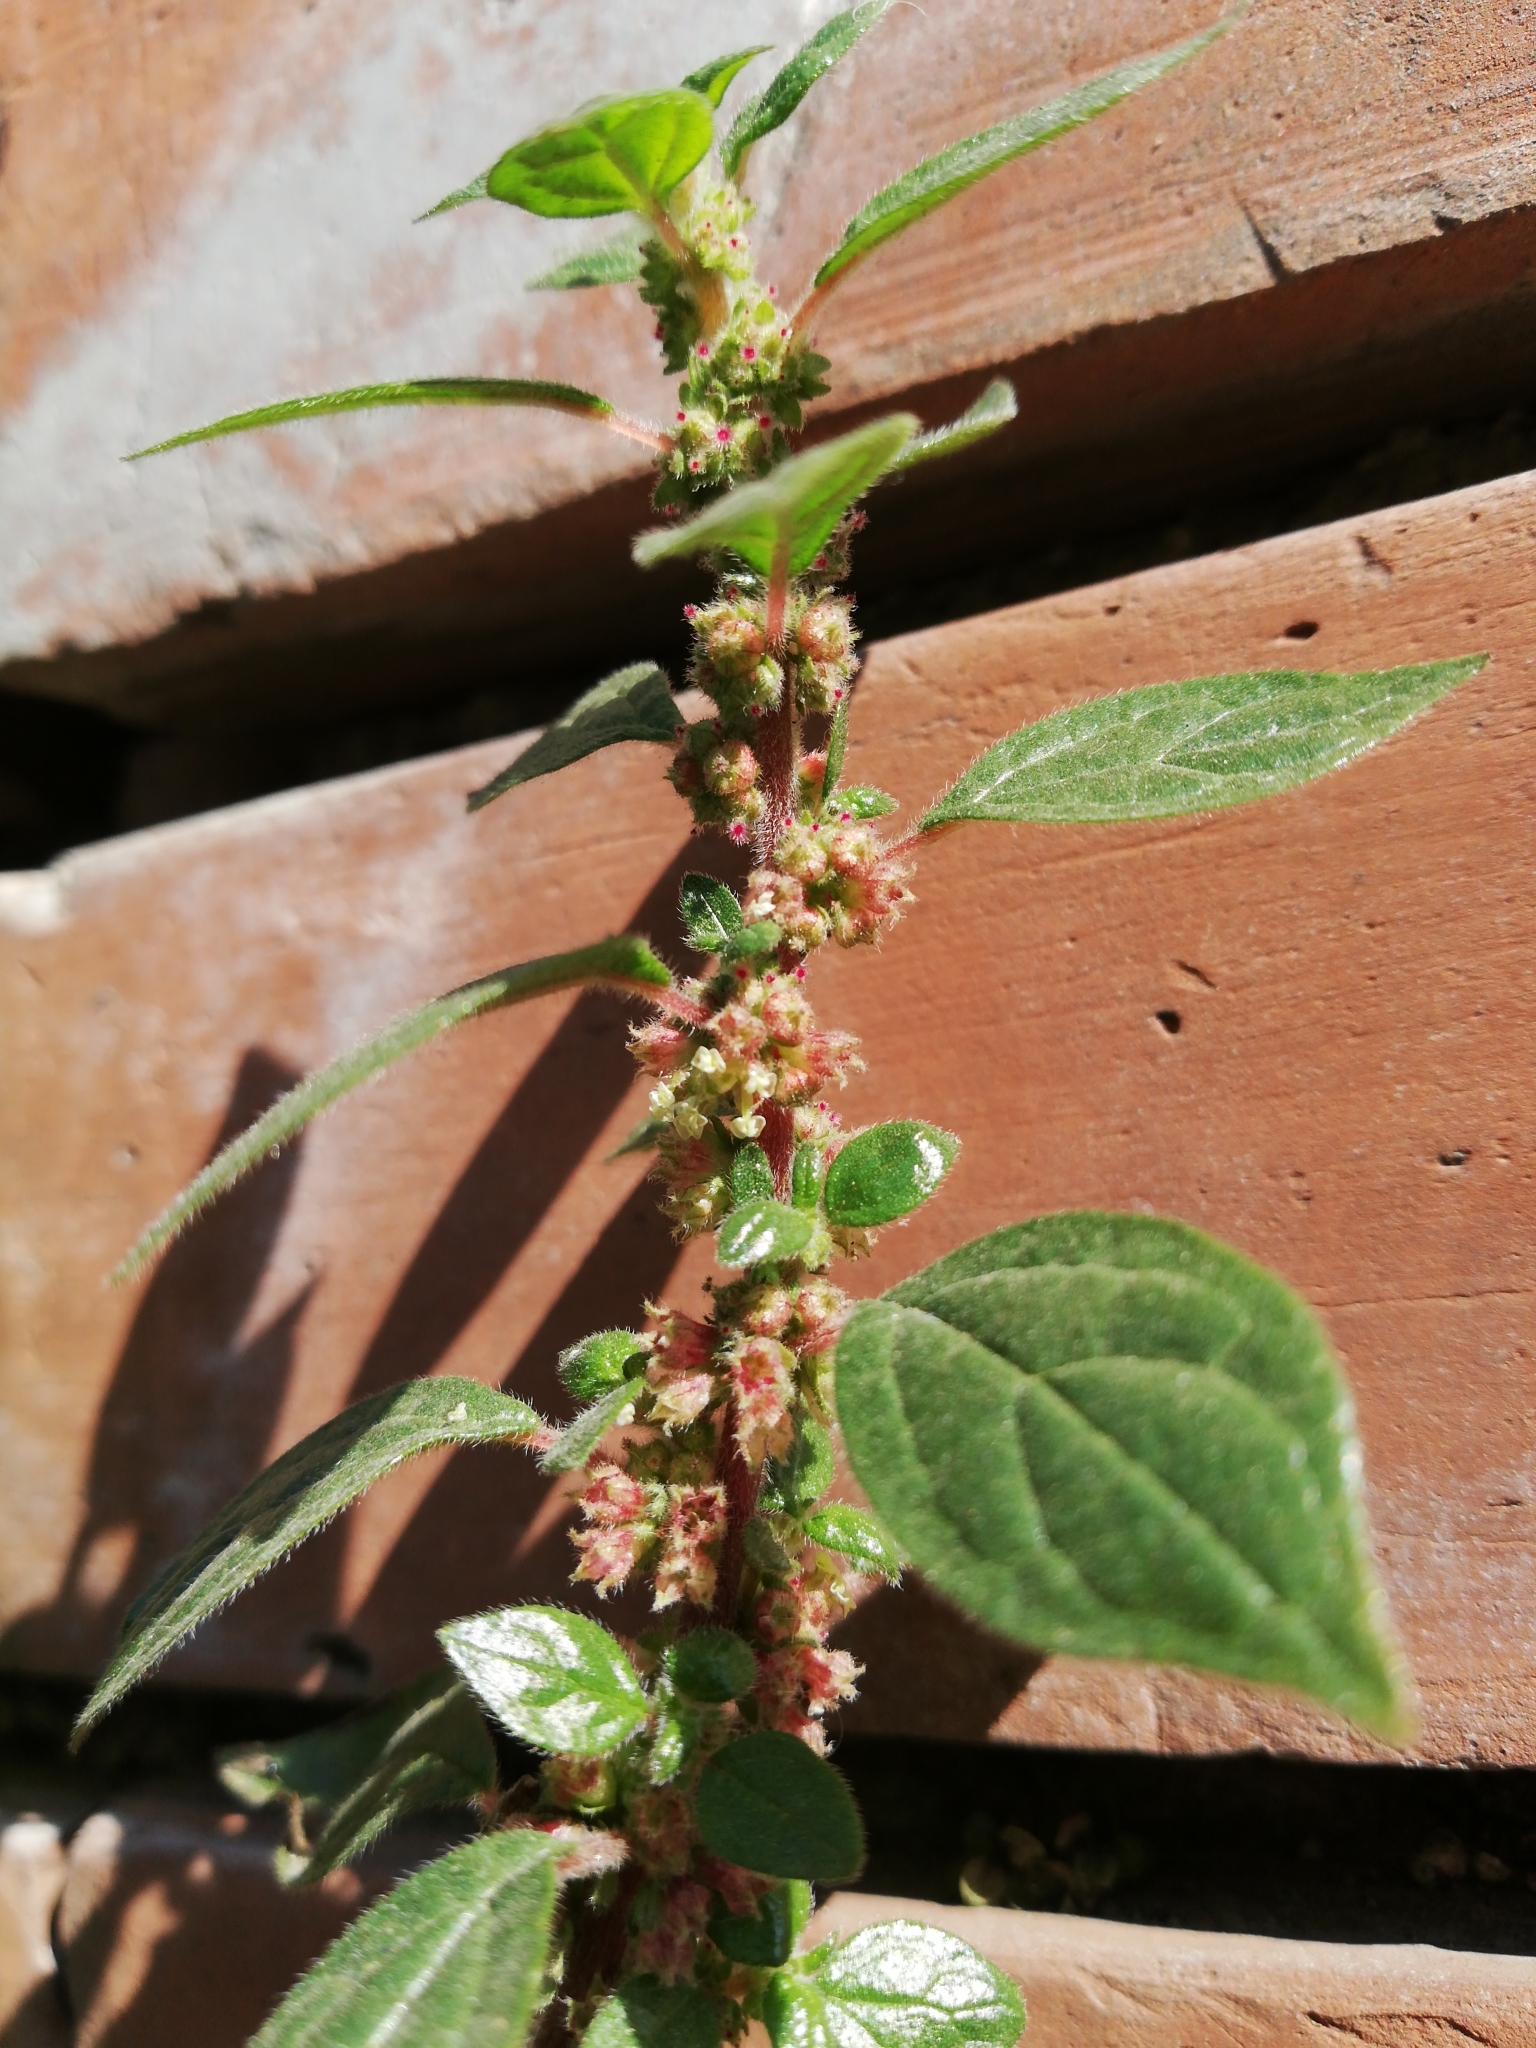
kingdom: Plantae
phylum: Tracheophyta
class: Magnoliopsida
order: Rosales
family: Urticaceae
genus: Parietaria
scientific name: Parietaria judaica
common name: Pellitory-of-the-wall
